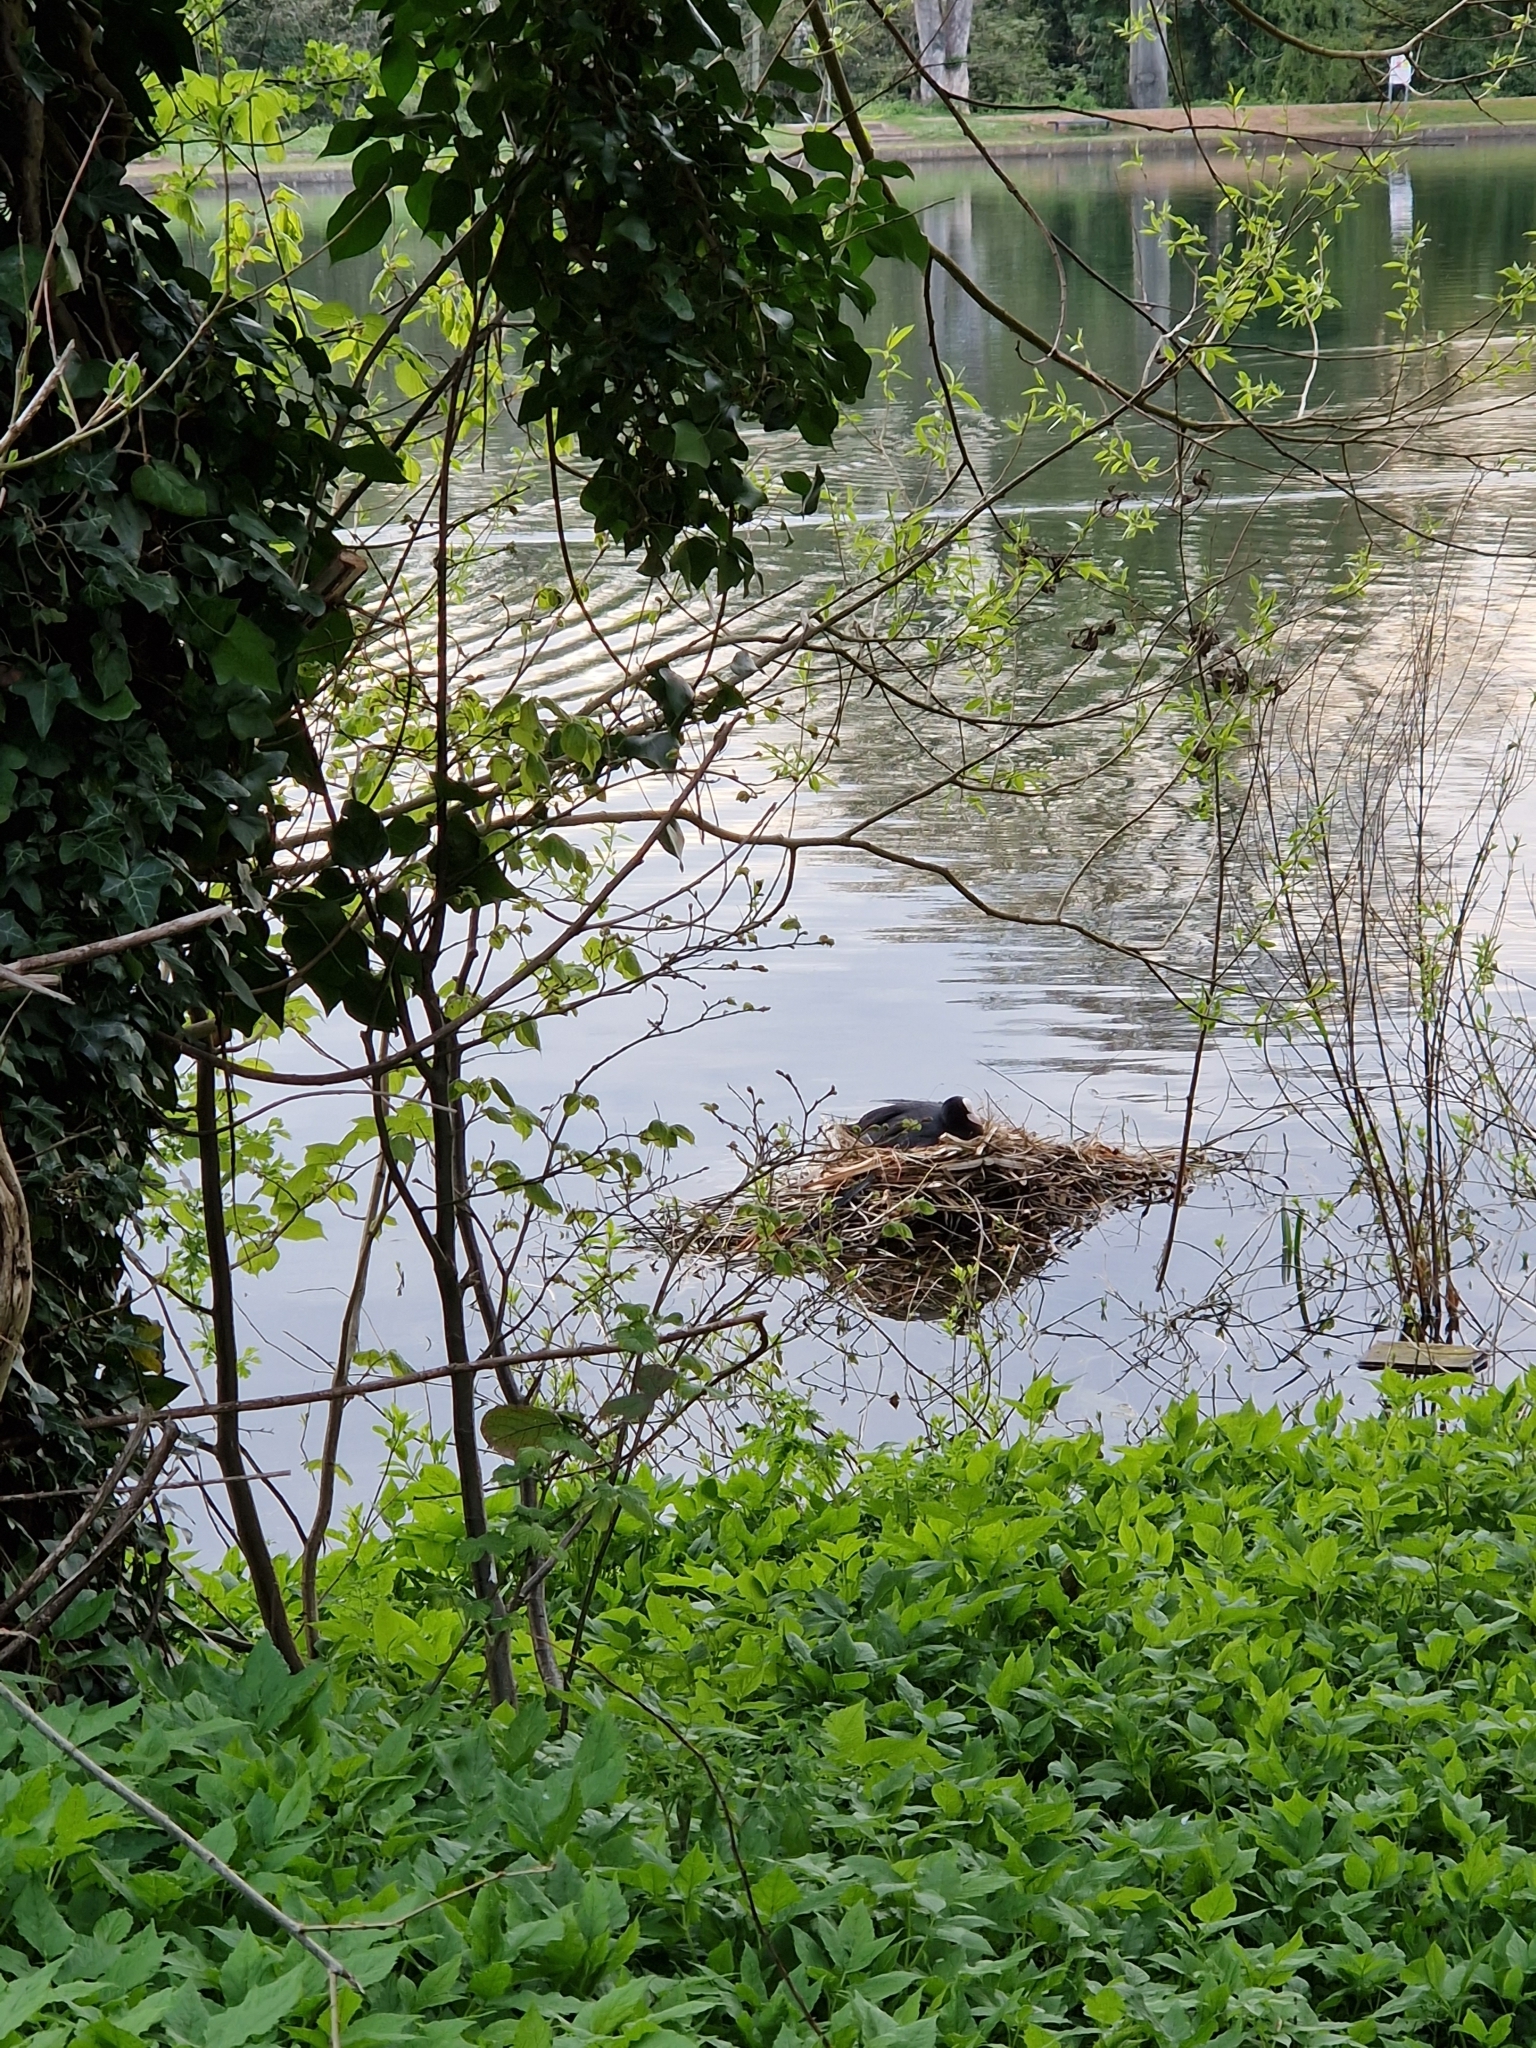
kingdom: Animalia
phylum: Chordata
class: Aves
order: Gruiformes
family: Rallidae
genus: Fulica
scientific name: Fulica atra
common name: Eurasian coot
